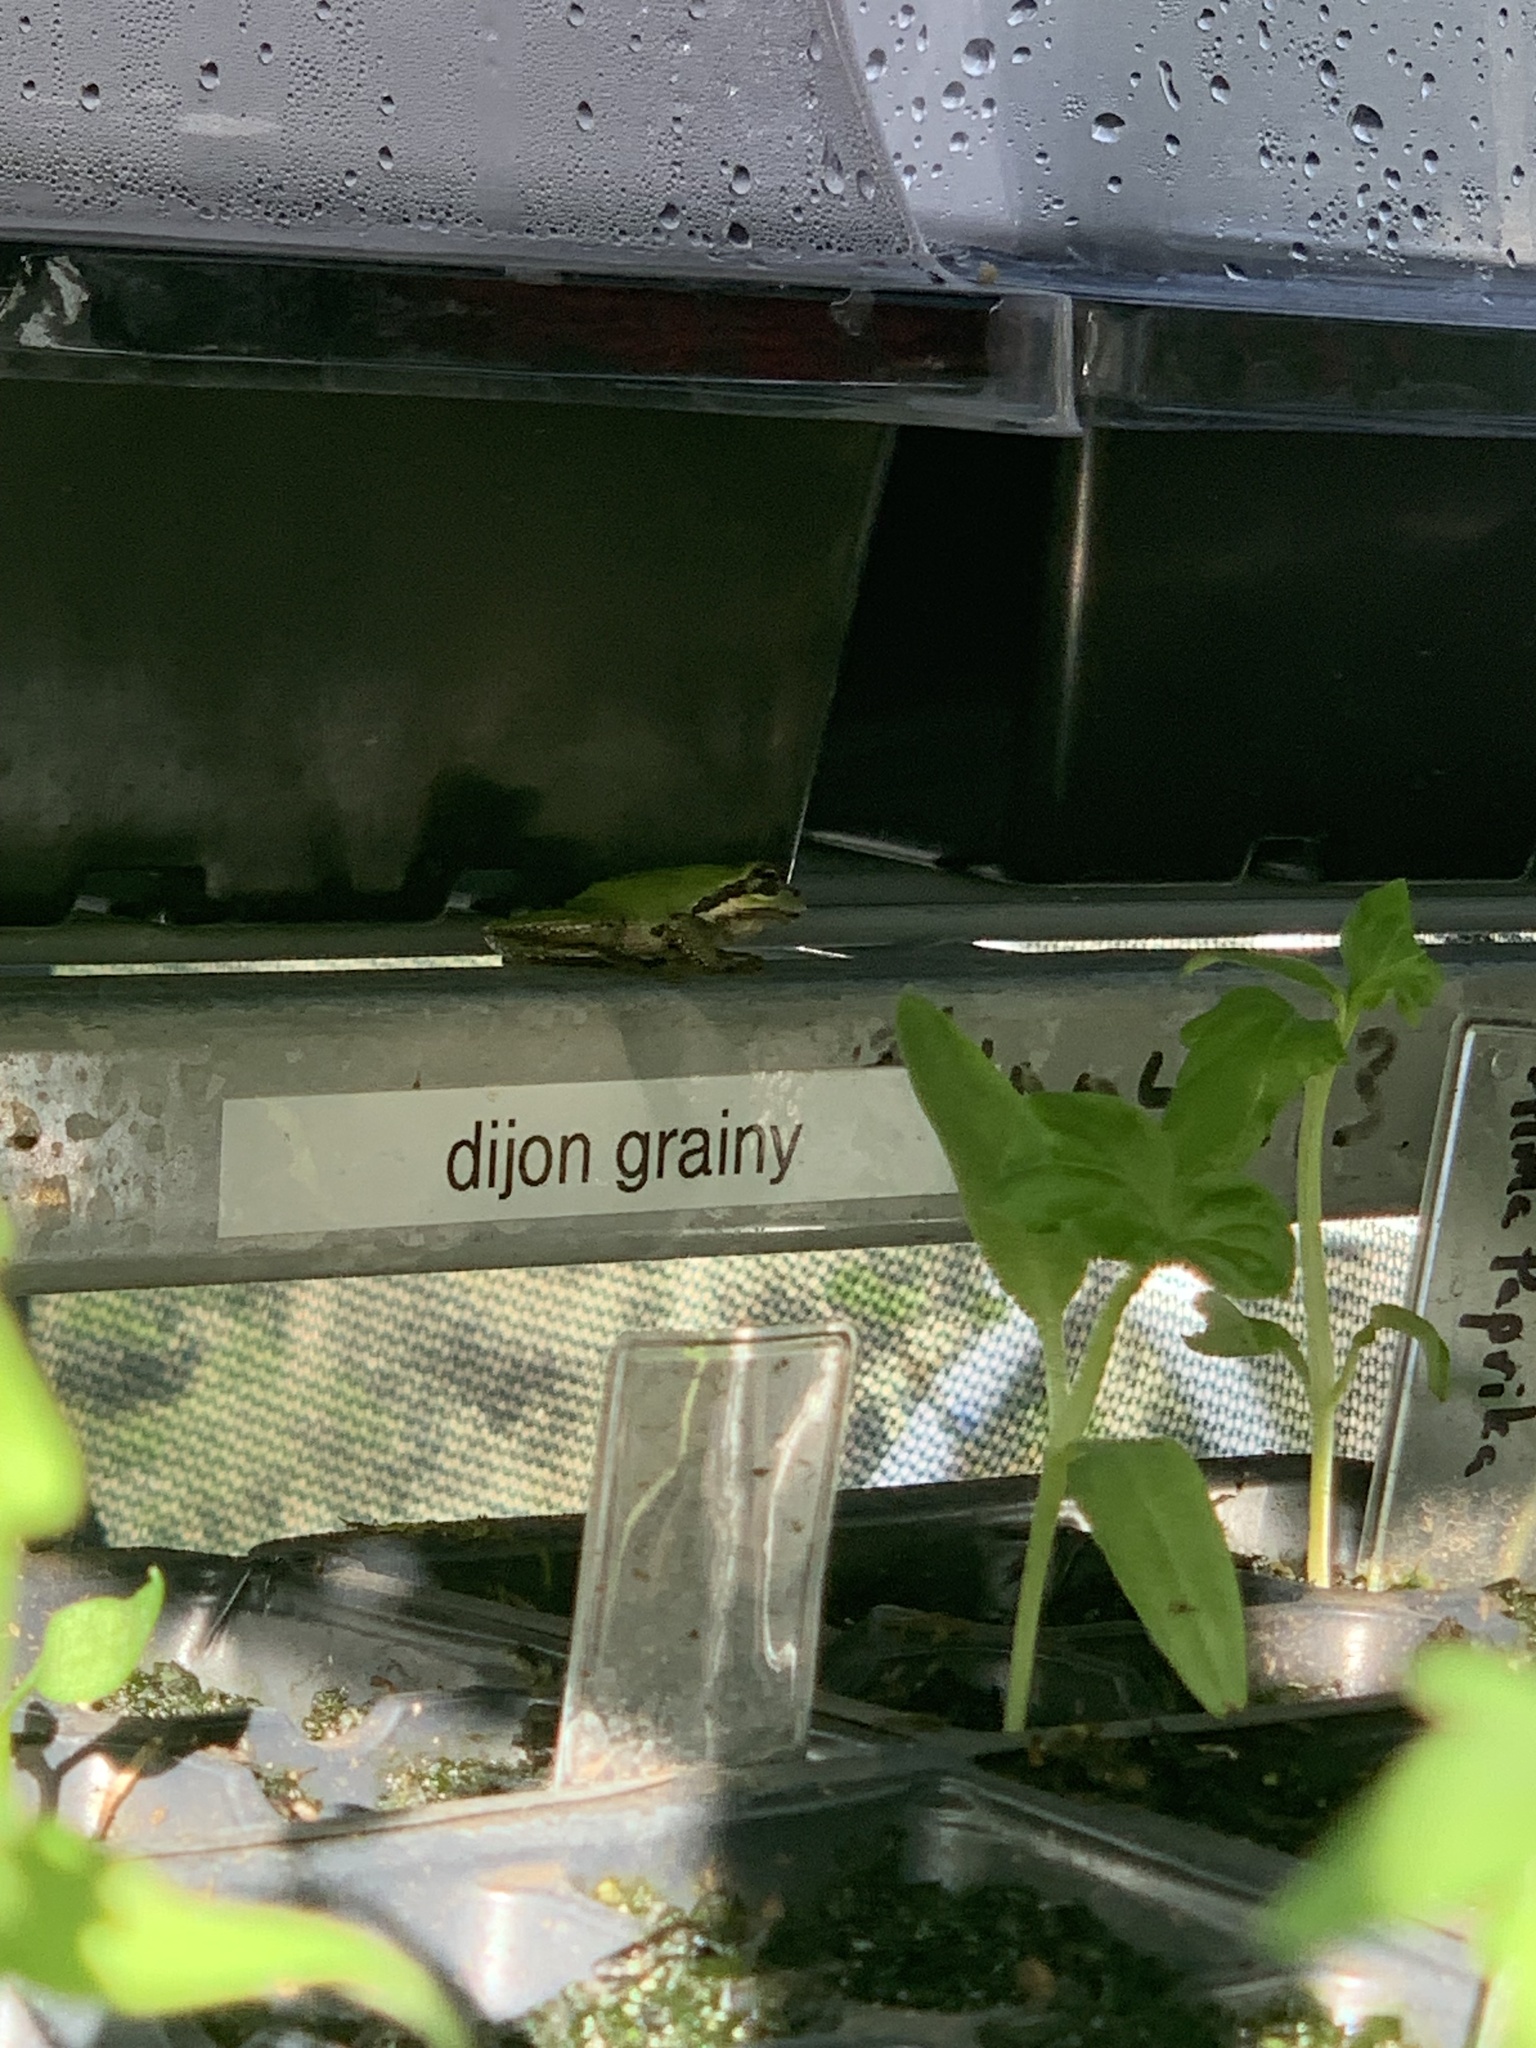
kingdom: Animalia
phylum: Chordata
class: Amphibia
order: Anura
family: Hylidae
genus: Pseudacris
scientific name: Pseudacris regilla
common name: Pacific chorus frog
